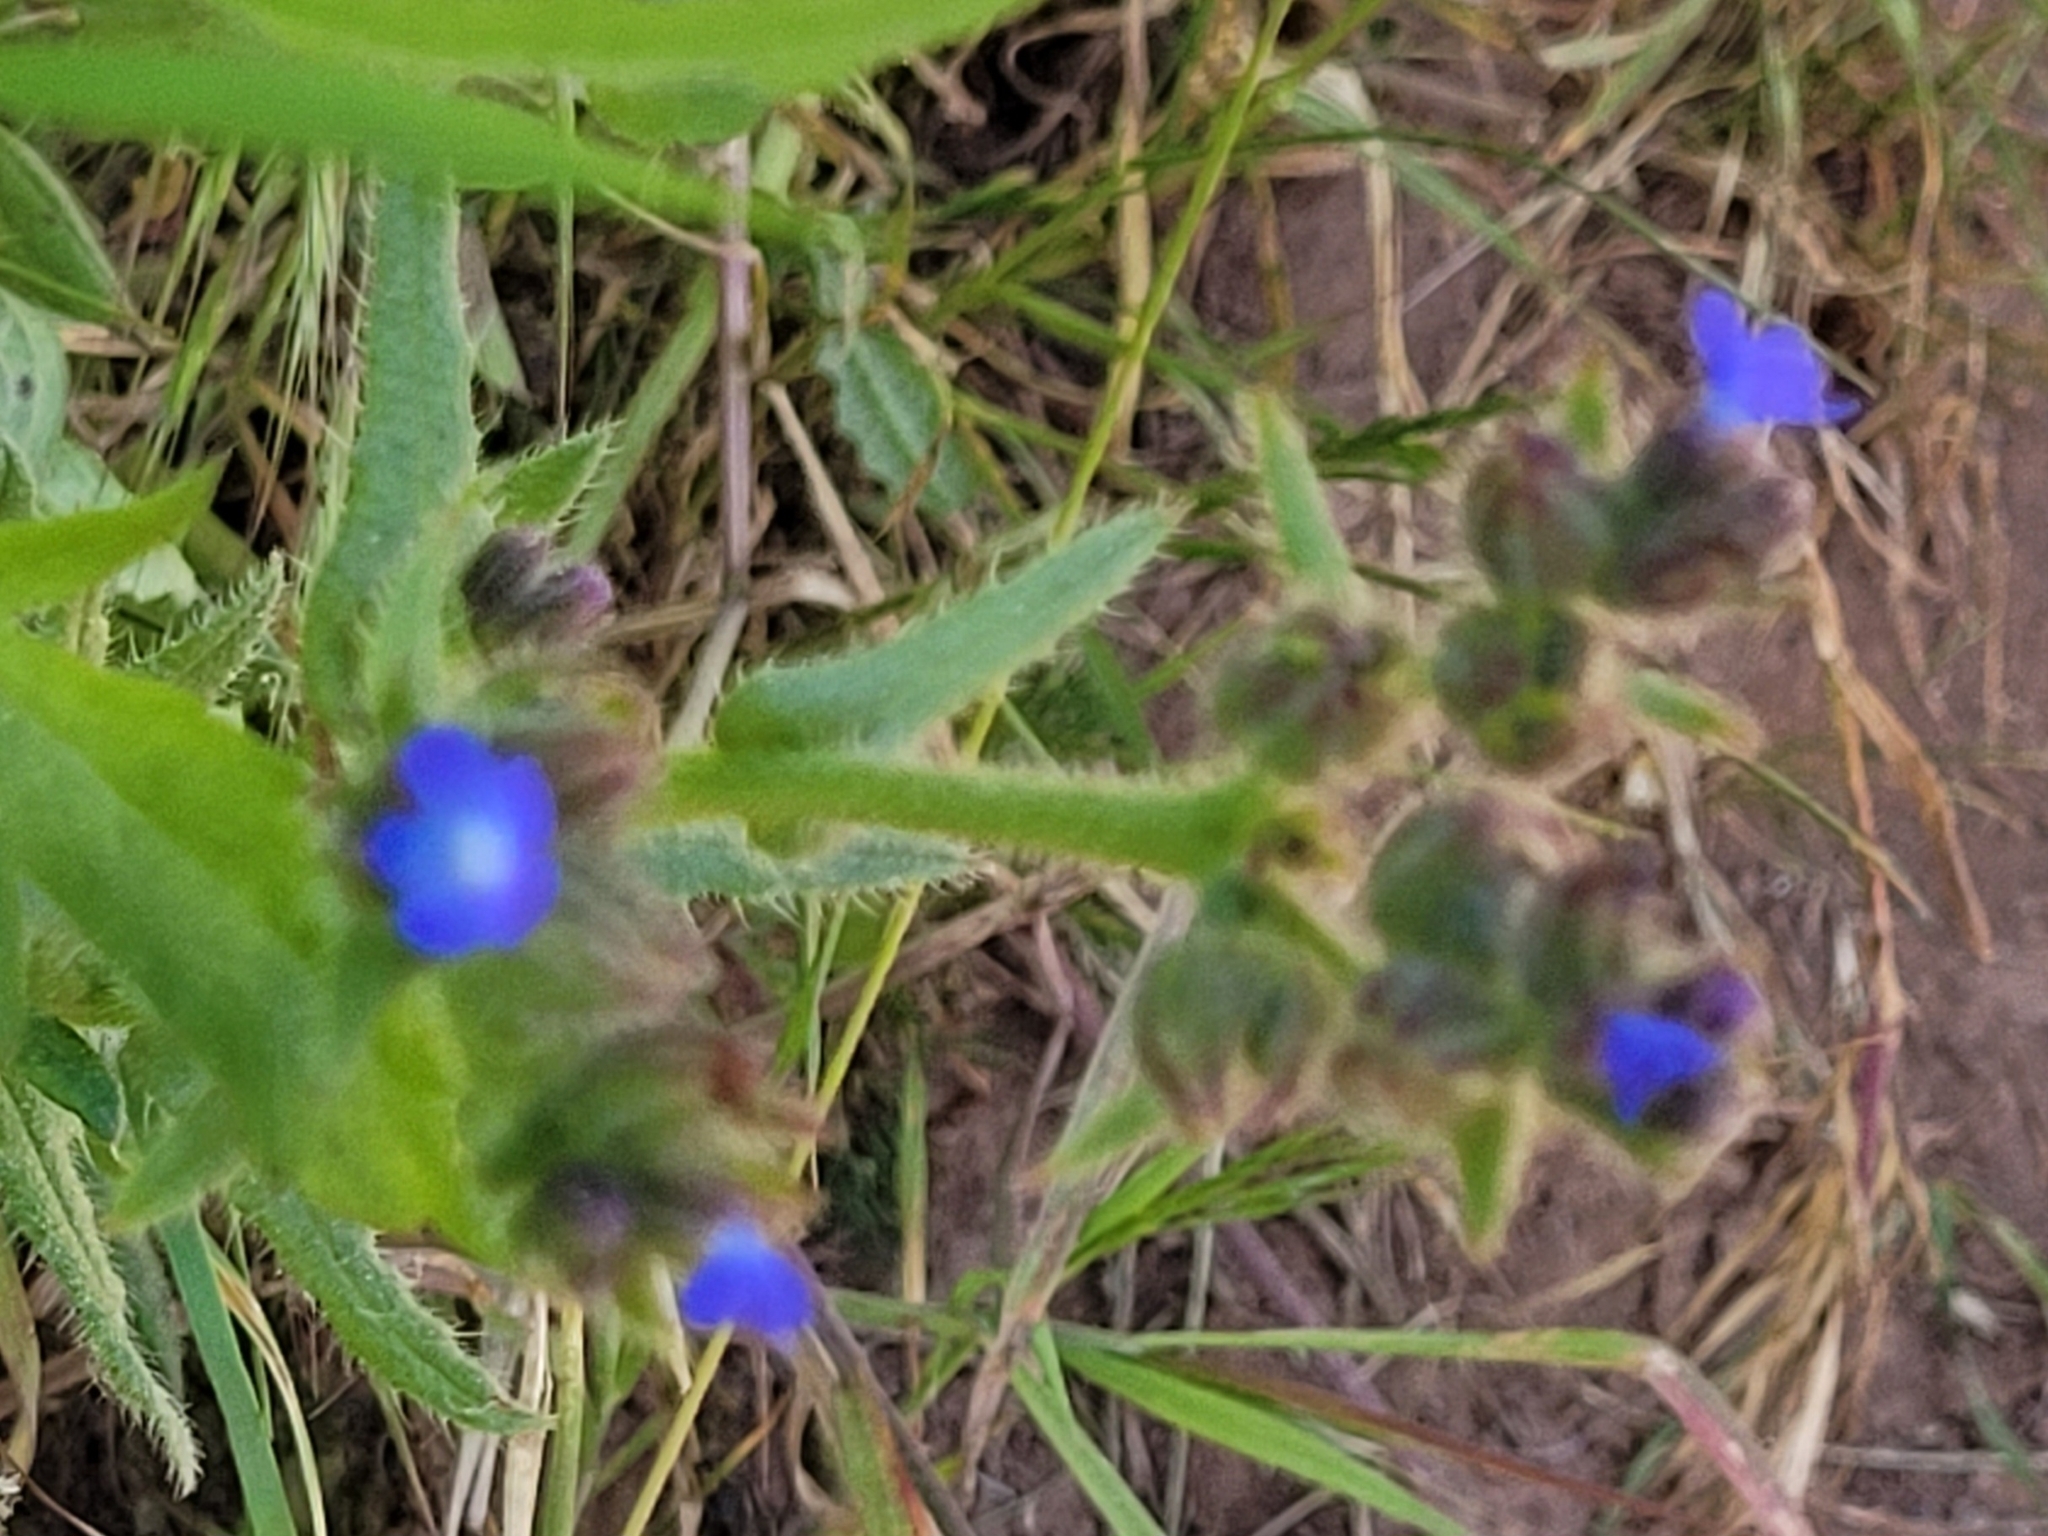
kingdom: Plantae
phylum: Tracheophyta
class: Magnoliopsida
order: Boraginales
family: Boraginaceae
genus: Lycopsis
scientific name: Lycopsis arvensis
